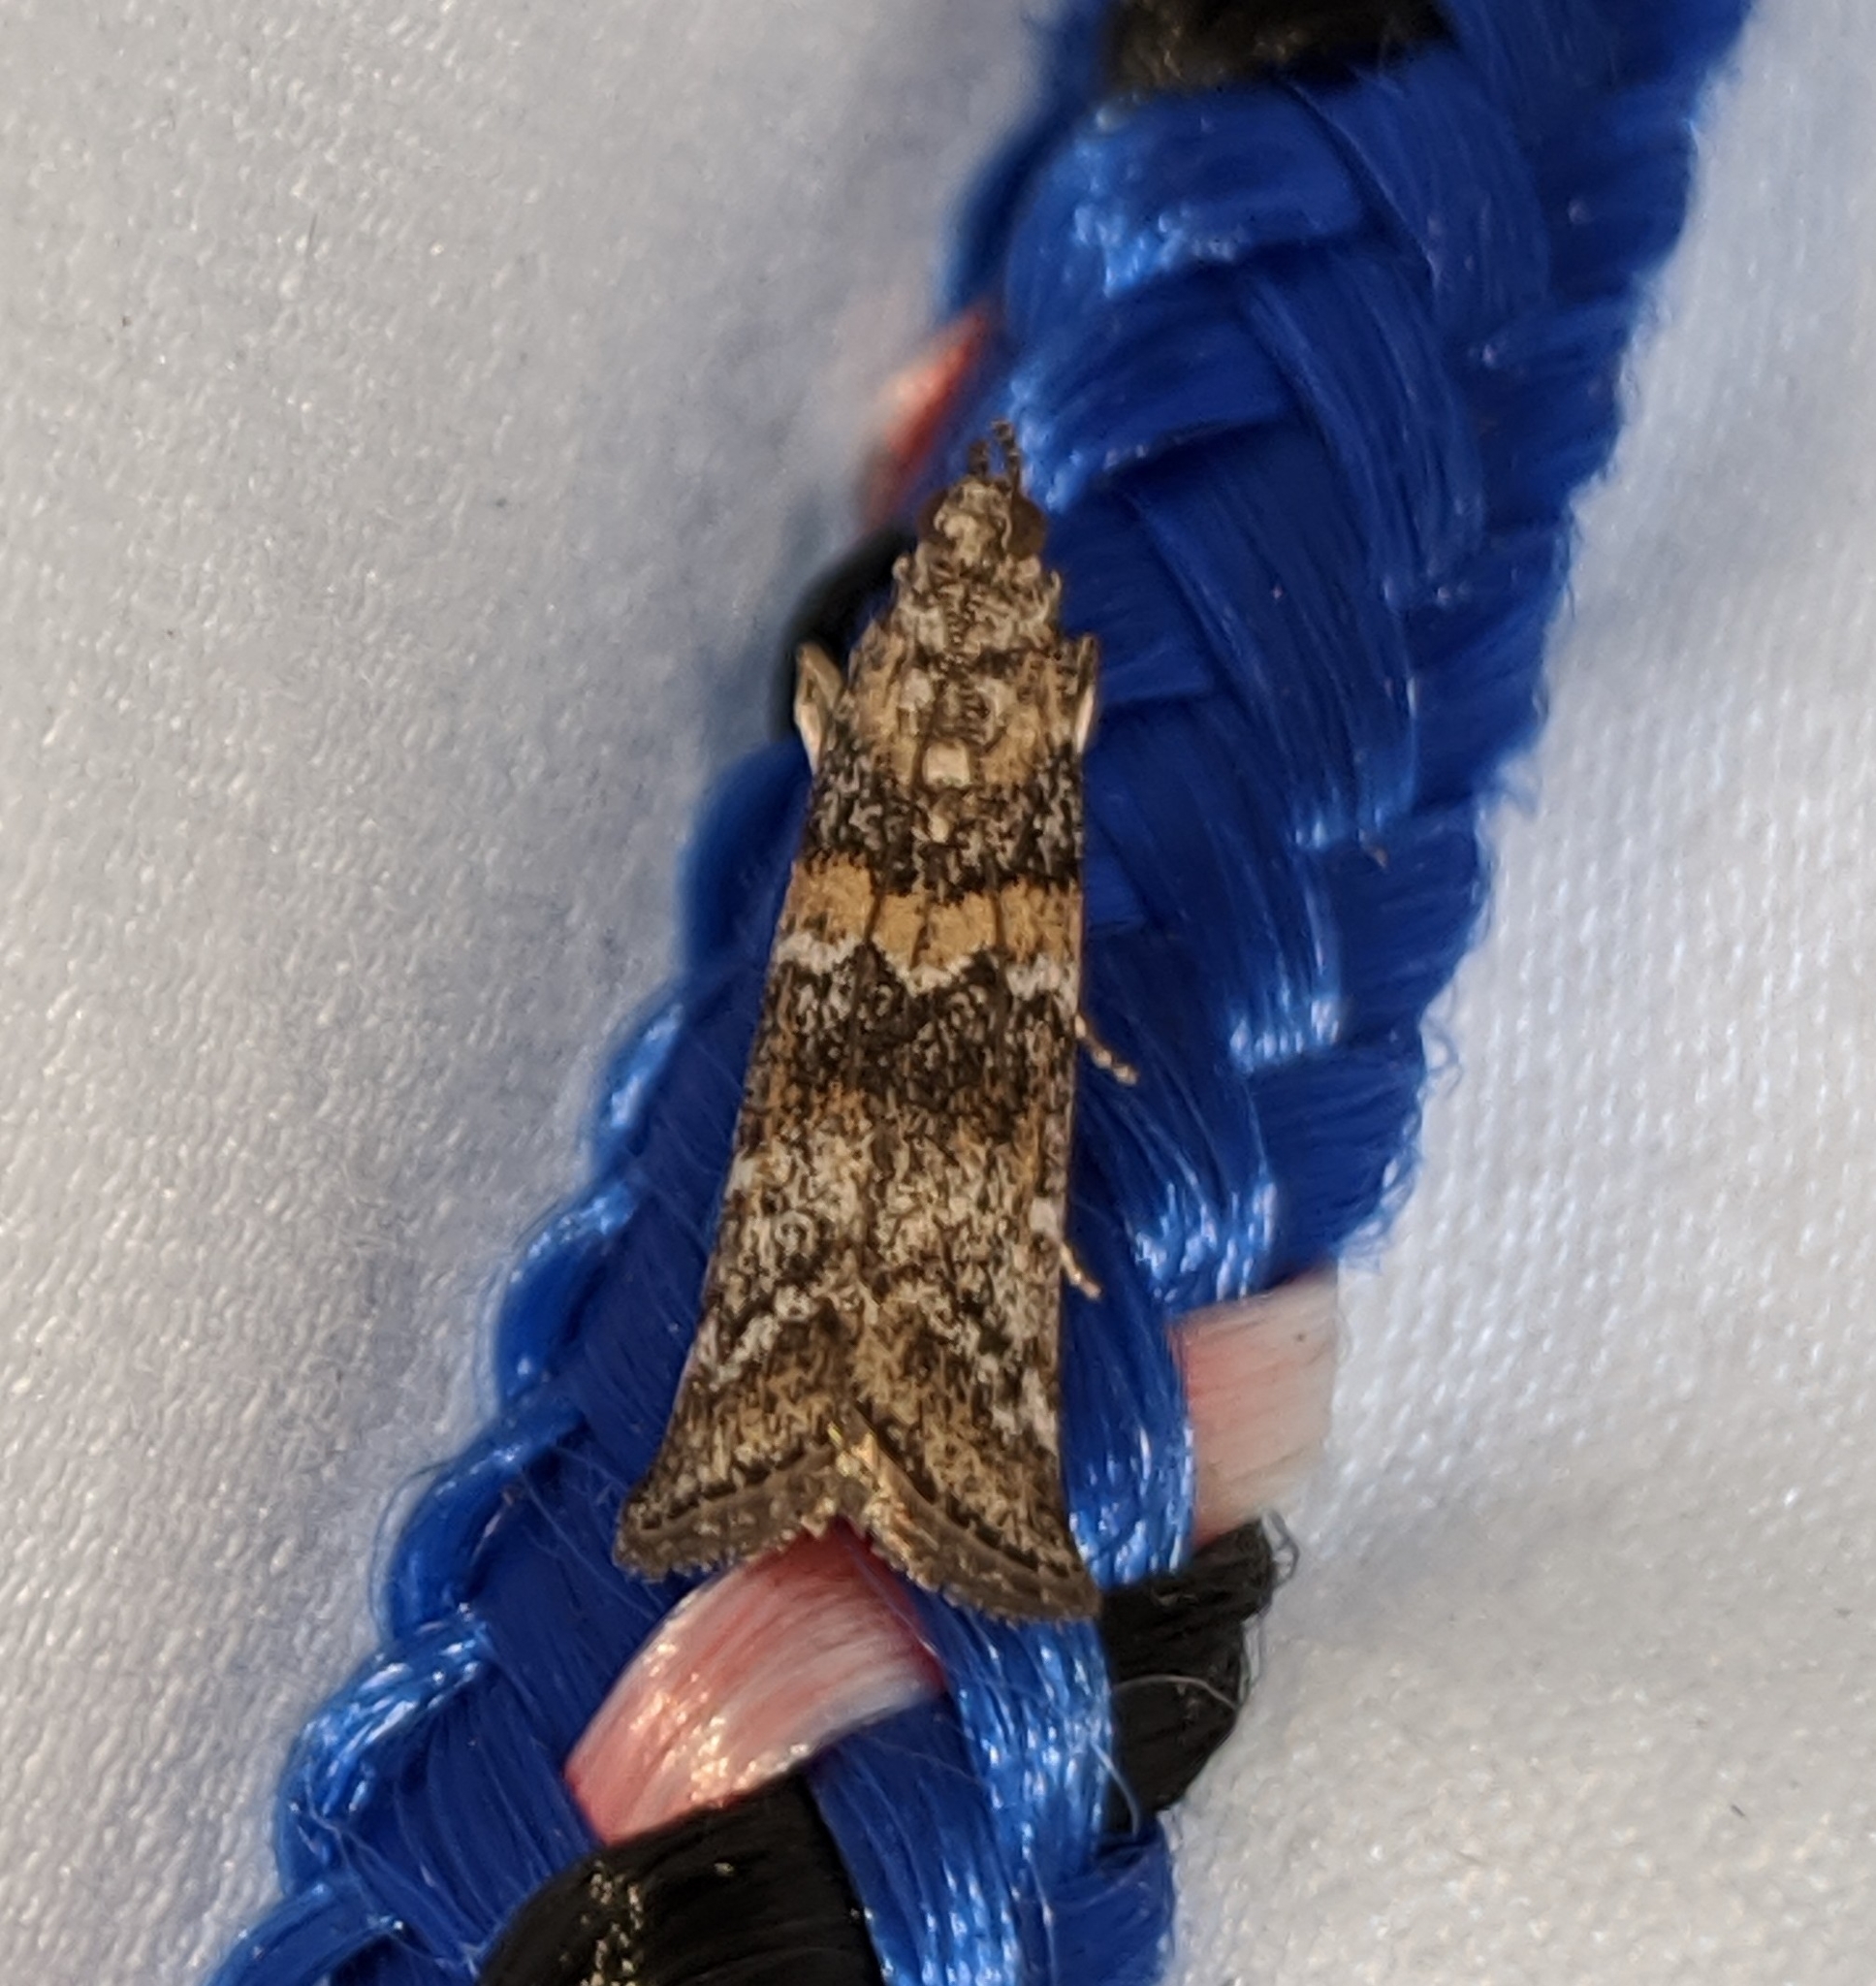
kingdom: Animalia
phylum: Arthropoda
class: Insecta
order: Lepidoptera
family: Pyralidae
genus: Dioryctria
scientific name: Dioryctria banksiella
